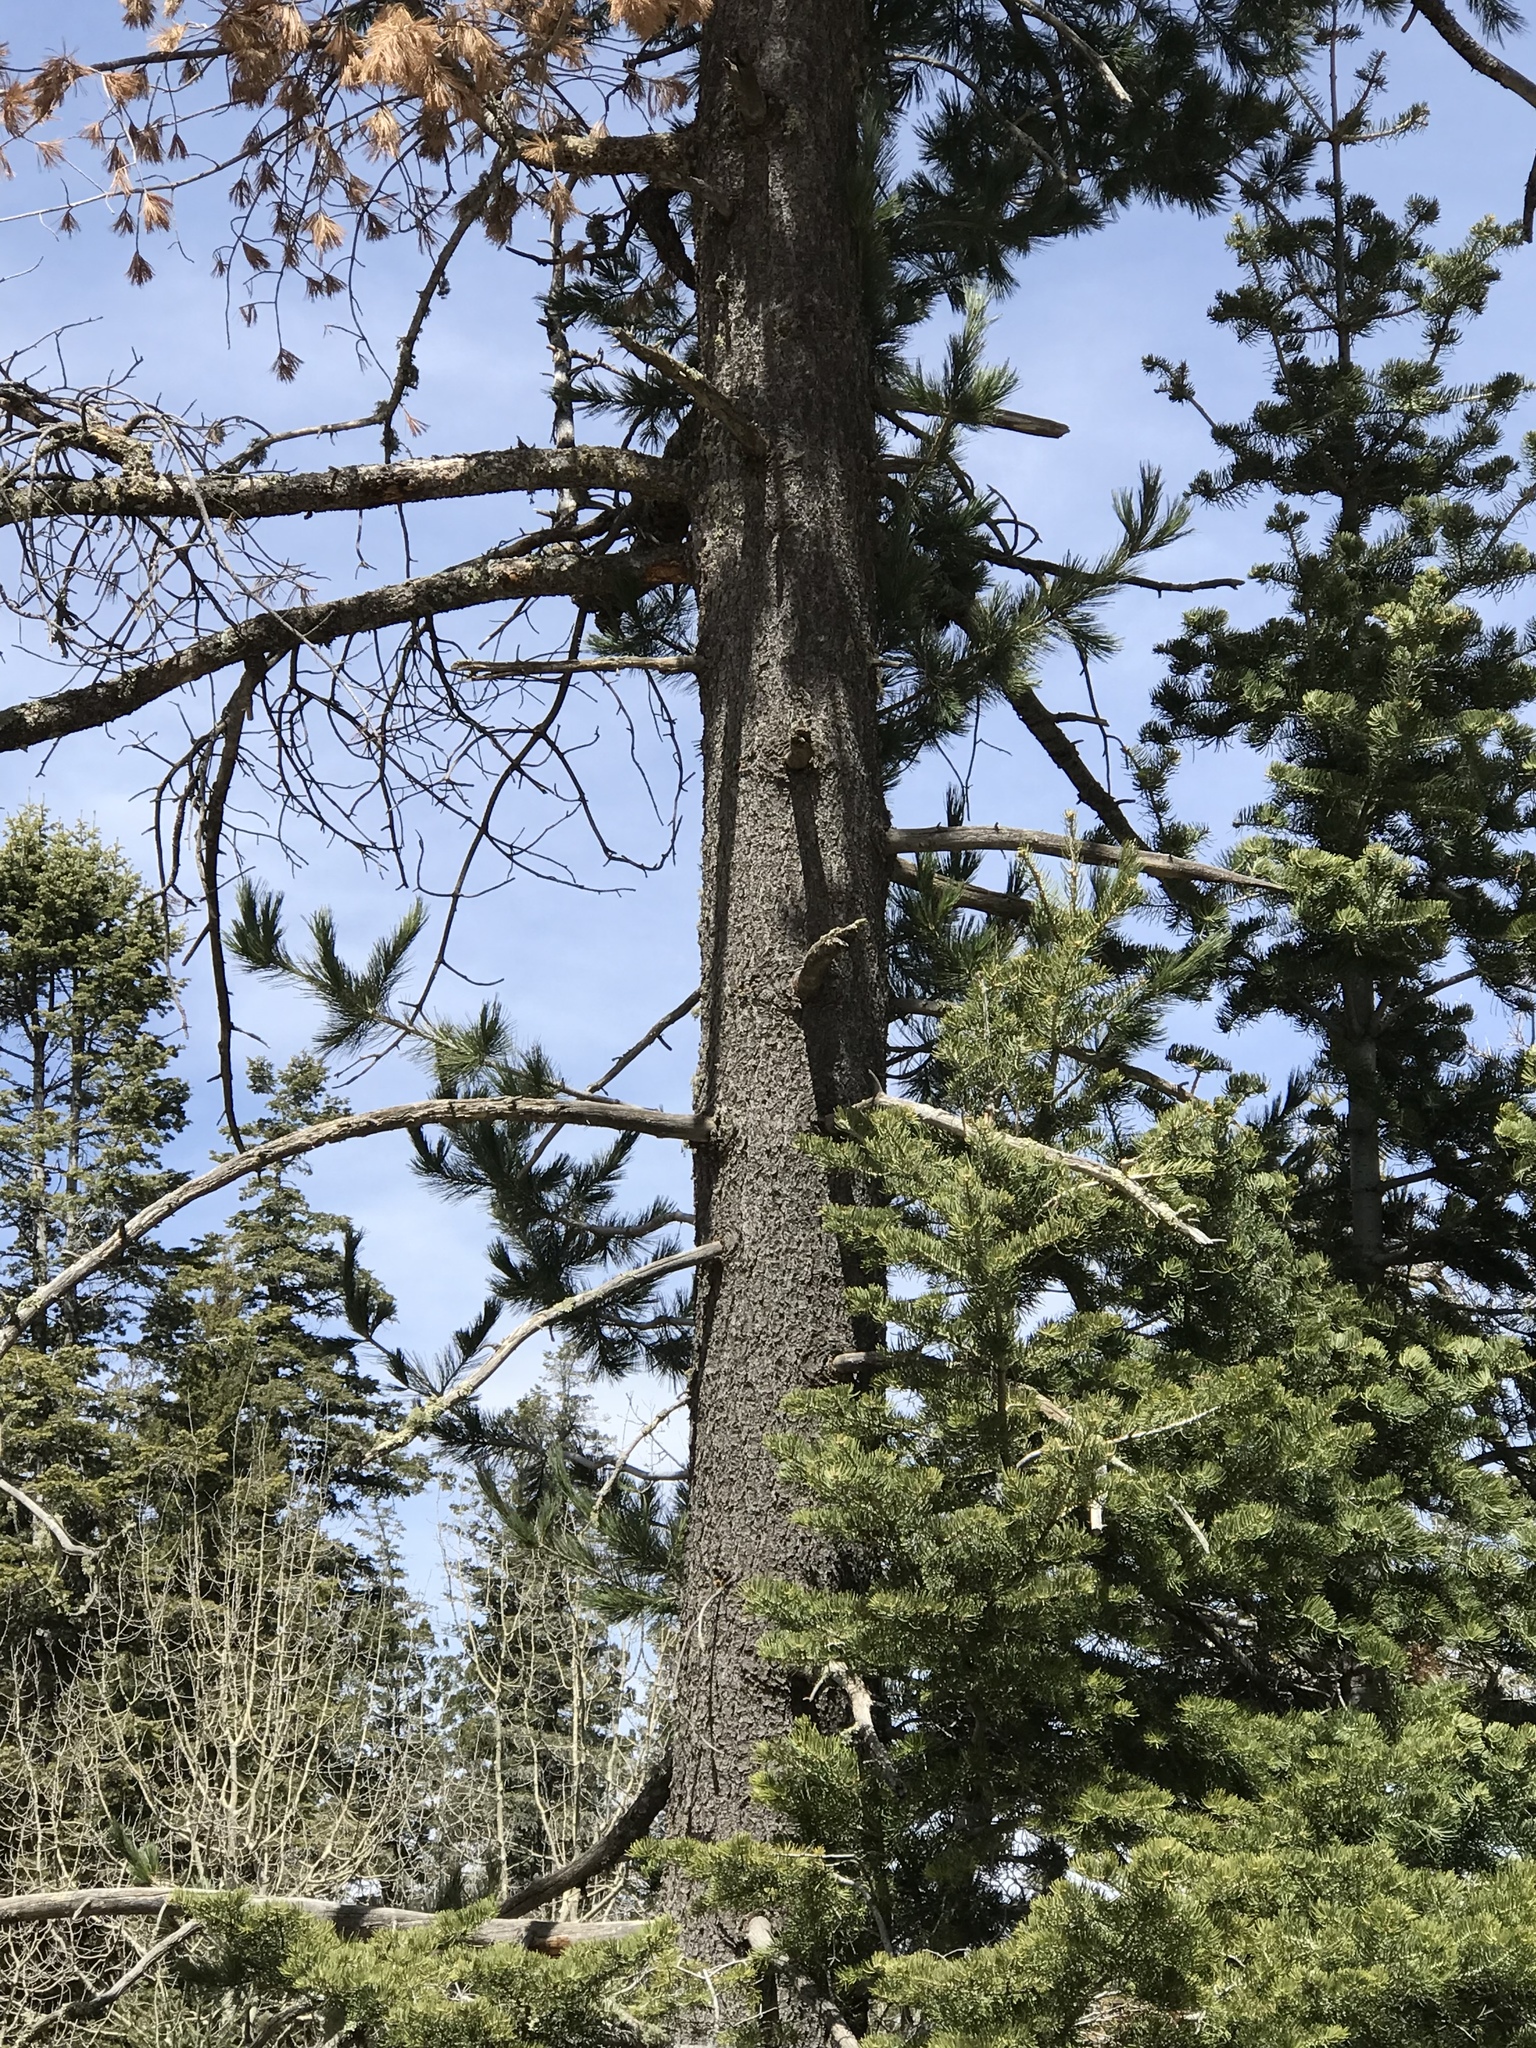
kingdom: Plantae
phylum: Tracheophyta
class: Pinopsida
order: Pinales
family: Pinaceae
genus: Pinus
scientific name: Pinus strobiformis
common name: Southwestern white pine
